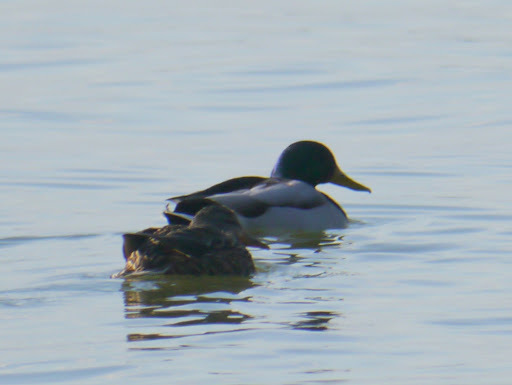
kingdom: Animalia
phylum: Chordata
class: Aves
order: Anseriformes
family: Anatidae
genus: Anas
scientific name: Anas platyrhynchos
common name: Mallard
